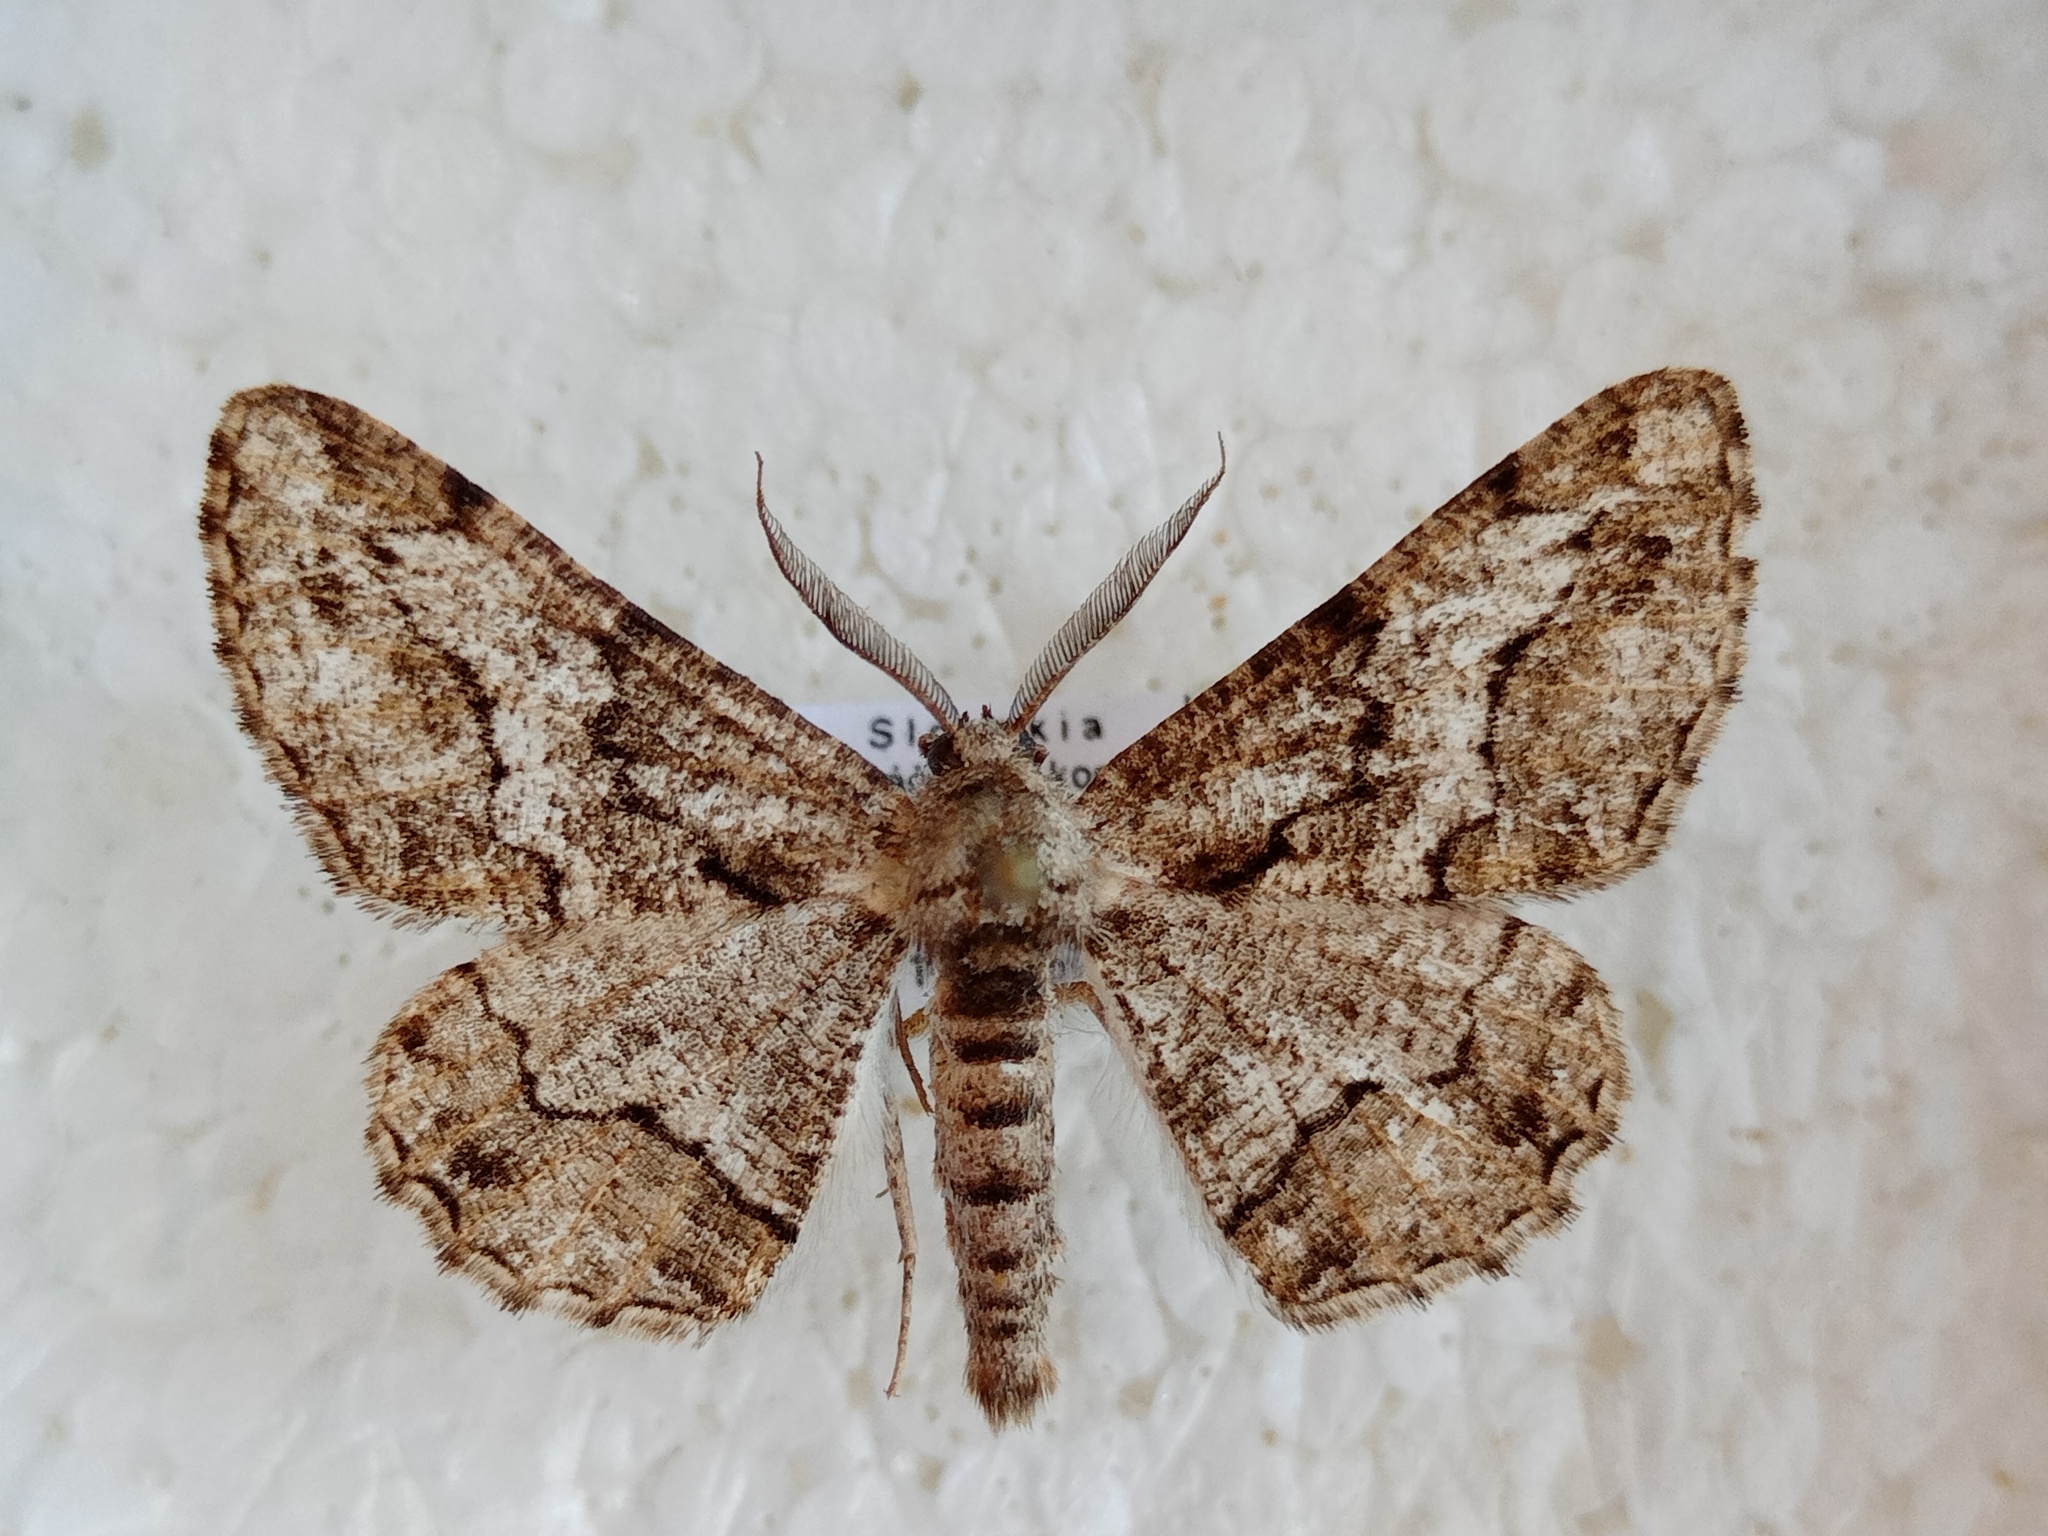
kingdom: Animalia
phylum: Arthropoda
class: Insecta
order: Lepidoptera
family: Geometridae
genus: Synopsia
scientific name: Synopsia sociaria
